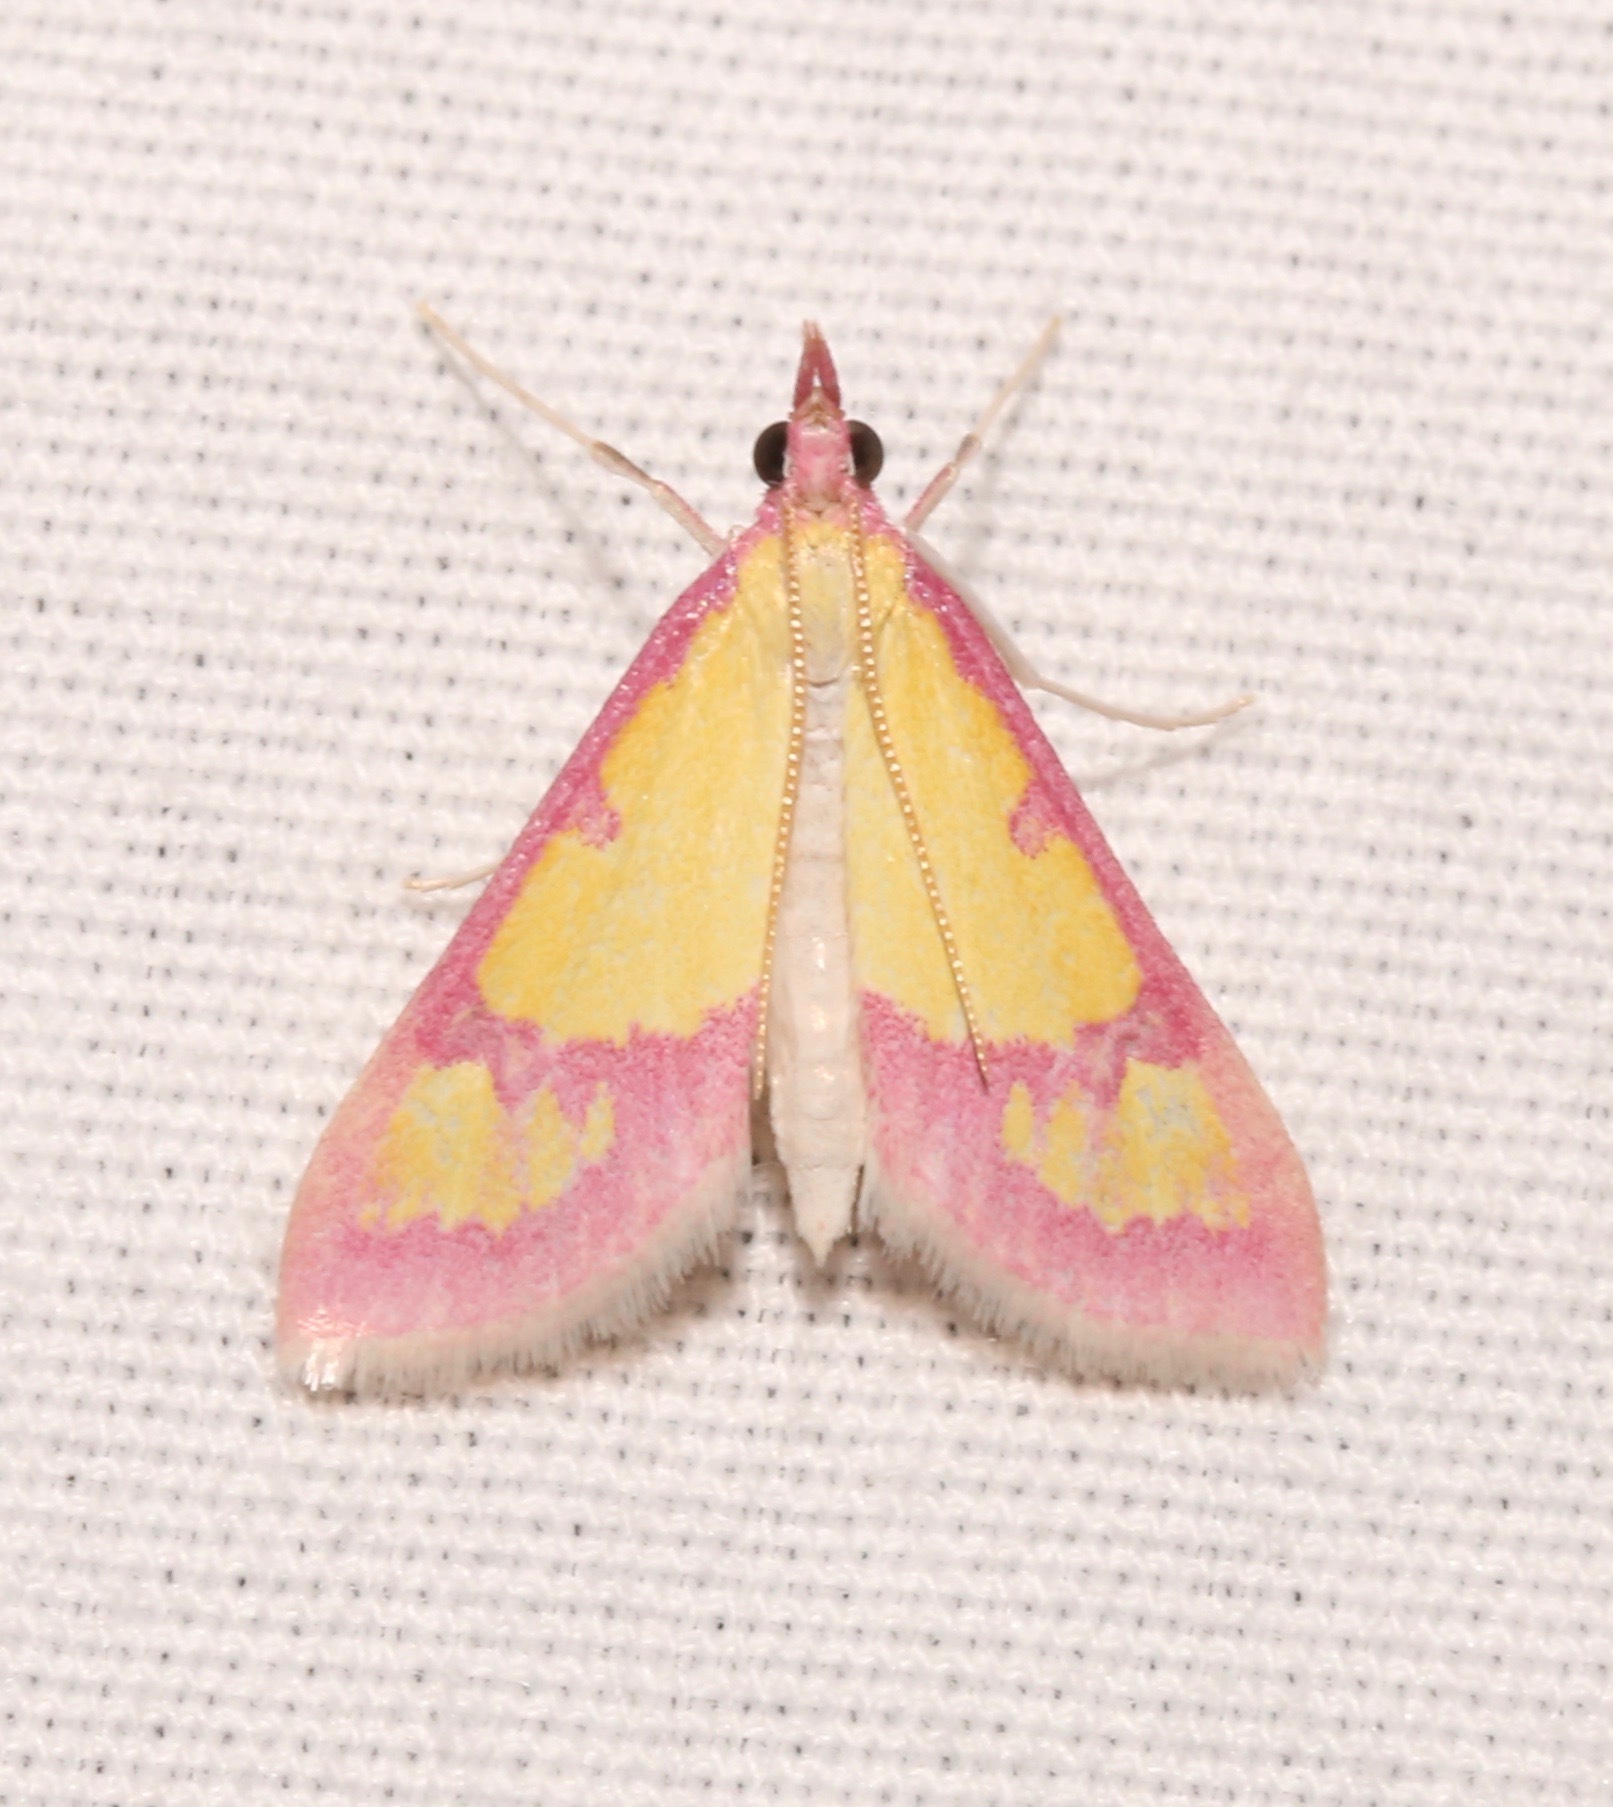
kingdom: Animalia
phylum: Arthropoda
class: Insecta
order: Lepidoptera
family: Crambidae
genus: Choristostigma
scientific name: Choristostigma roseopennalis
